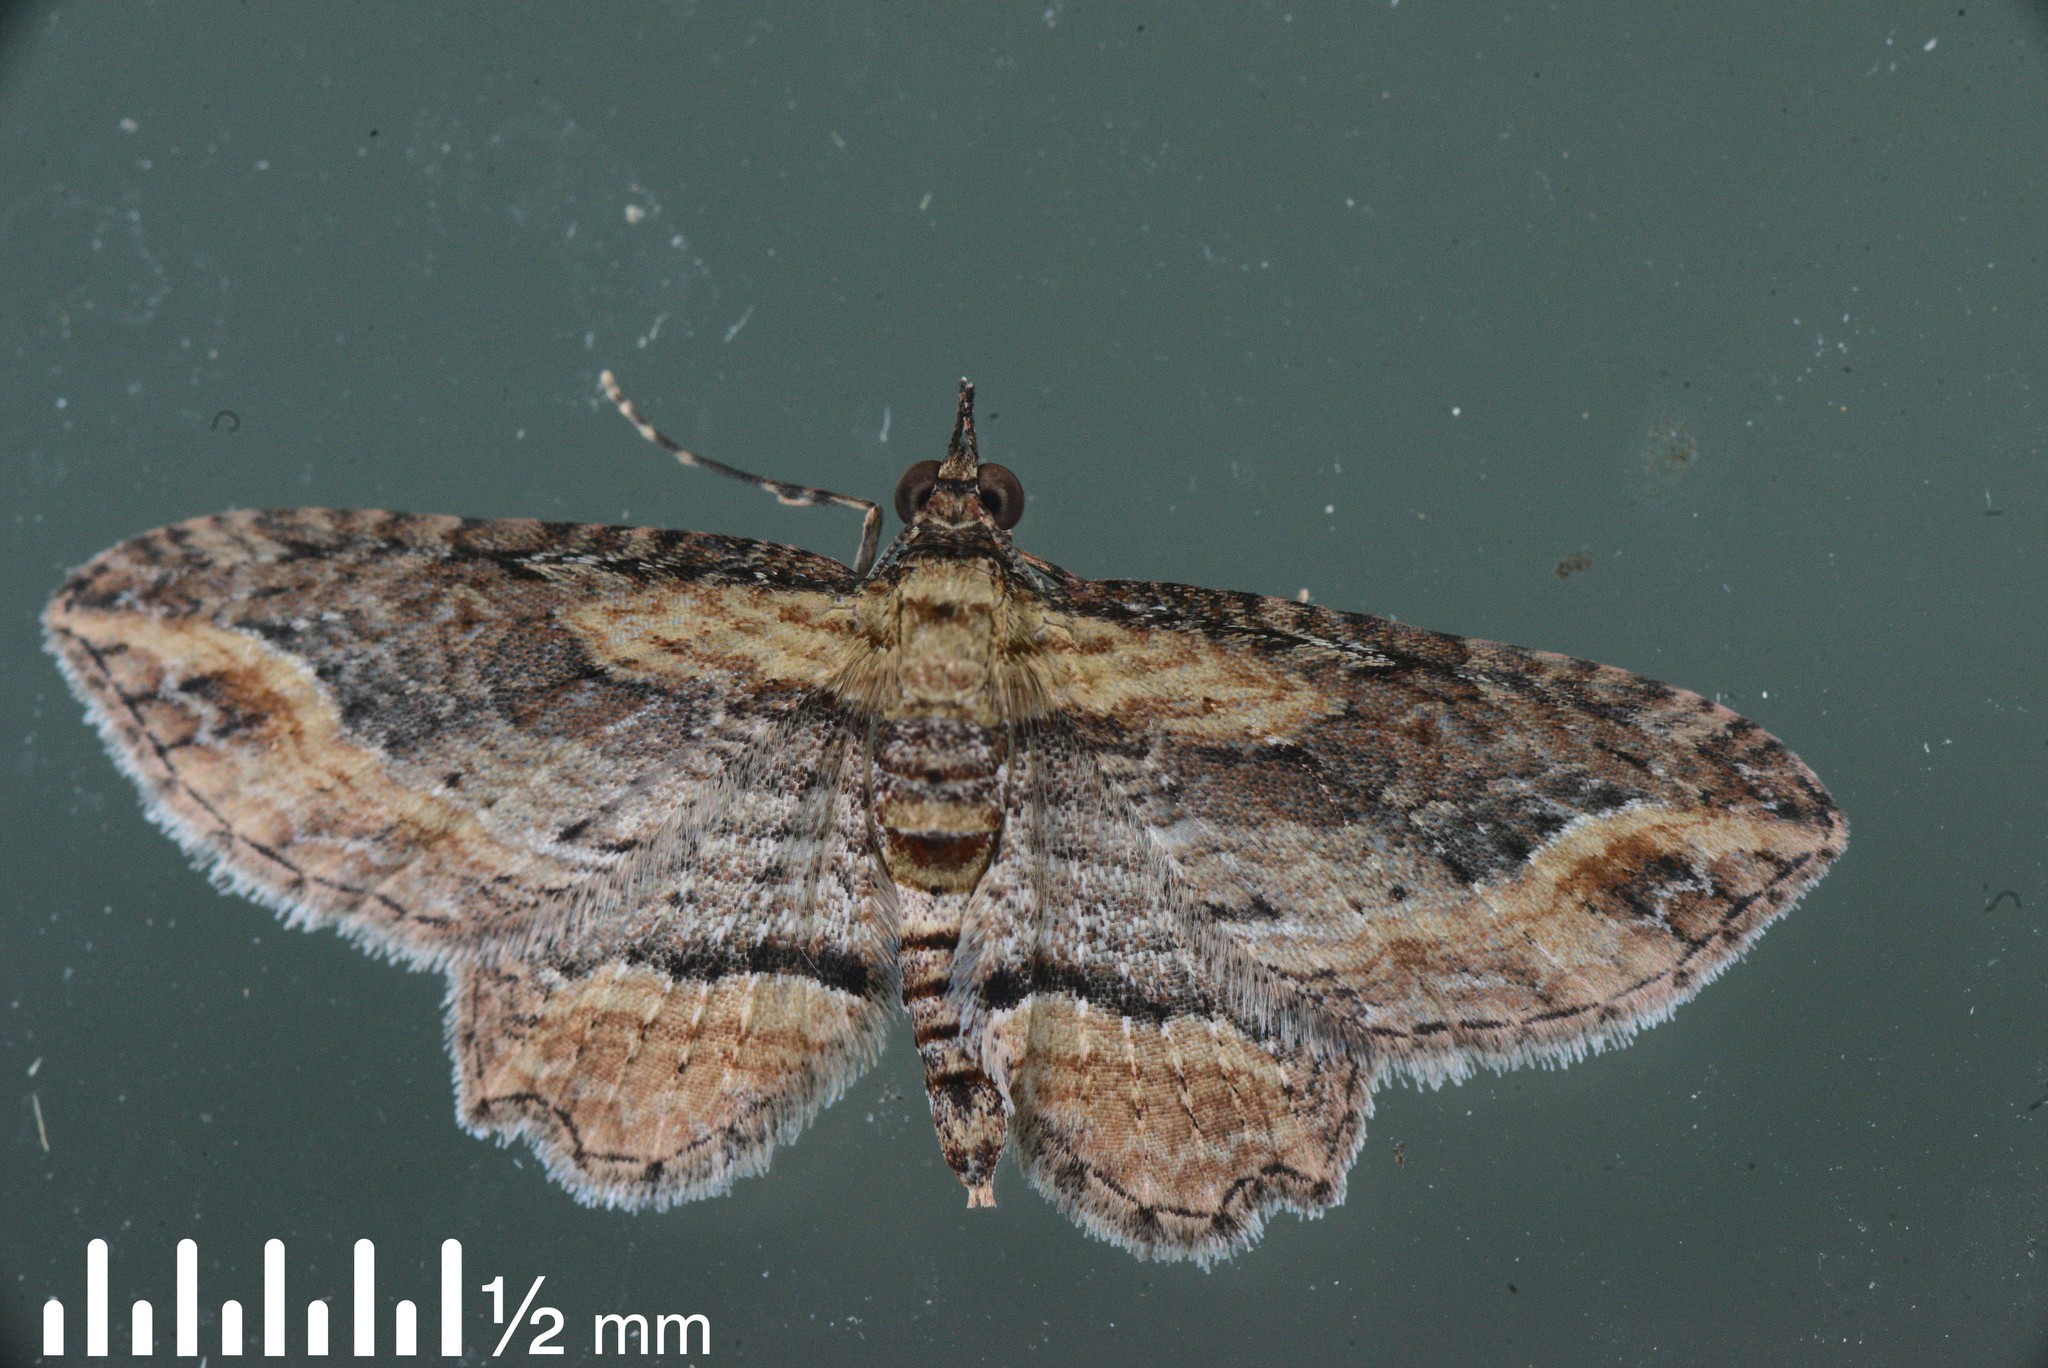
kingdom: Animalia
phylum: Arthropoda
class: Insecta
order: Lepidoptera
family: Geometridae
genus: Chloroclystis
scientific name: Chloroclystis filata
